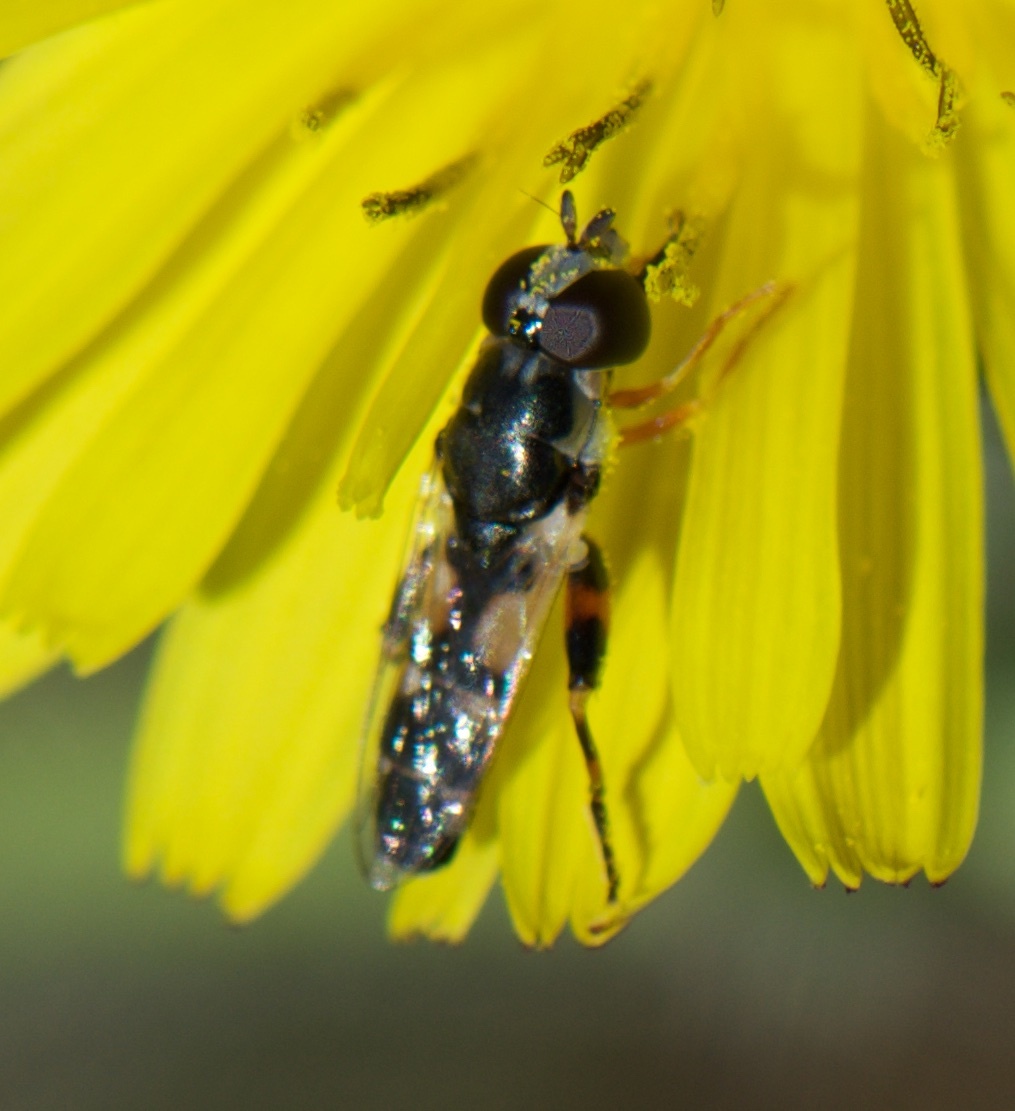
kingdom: Animalia
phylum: Arthropoda
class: Insecta
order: Diptera
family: Syrphidae
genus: Syritta
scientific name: Syritta flaviventris
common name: Syrphid fly
